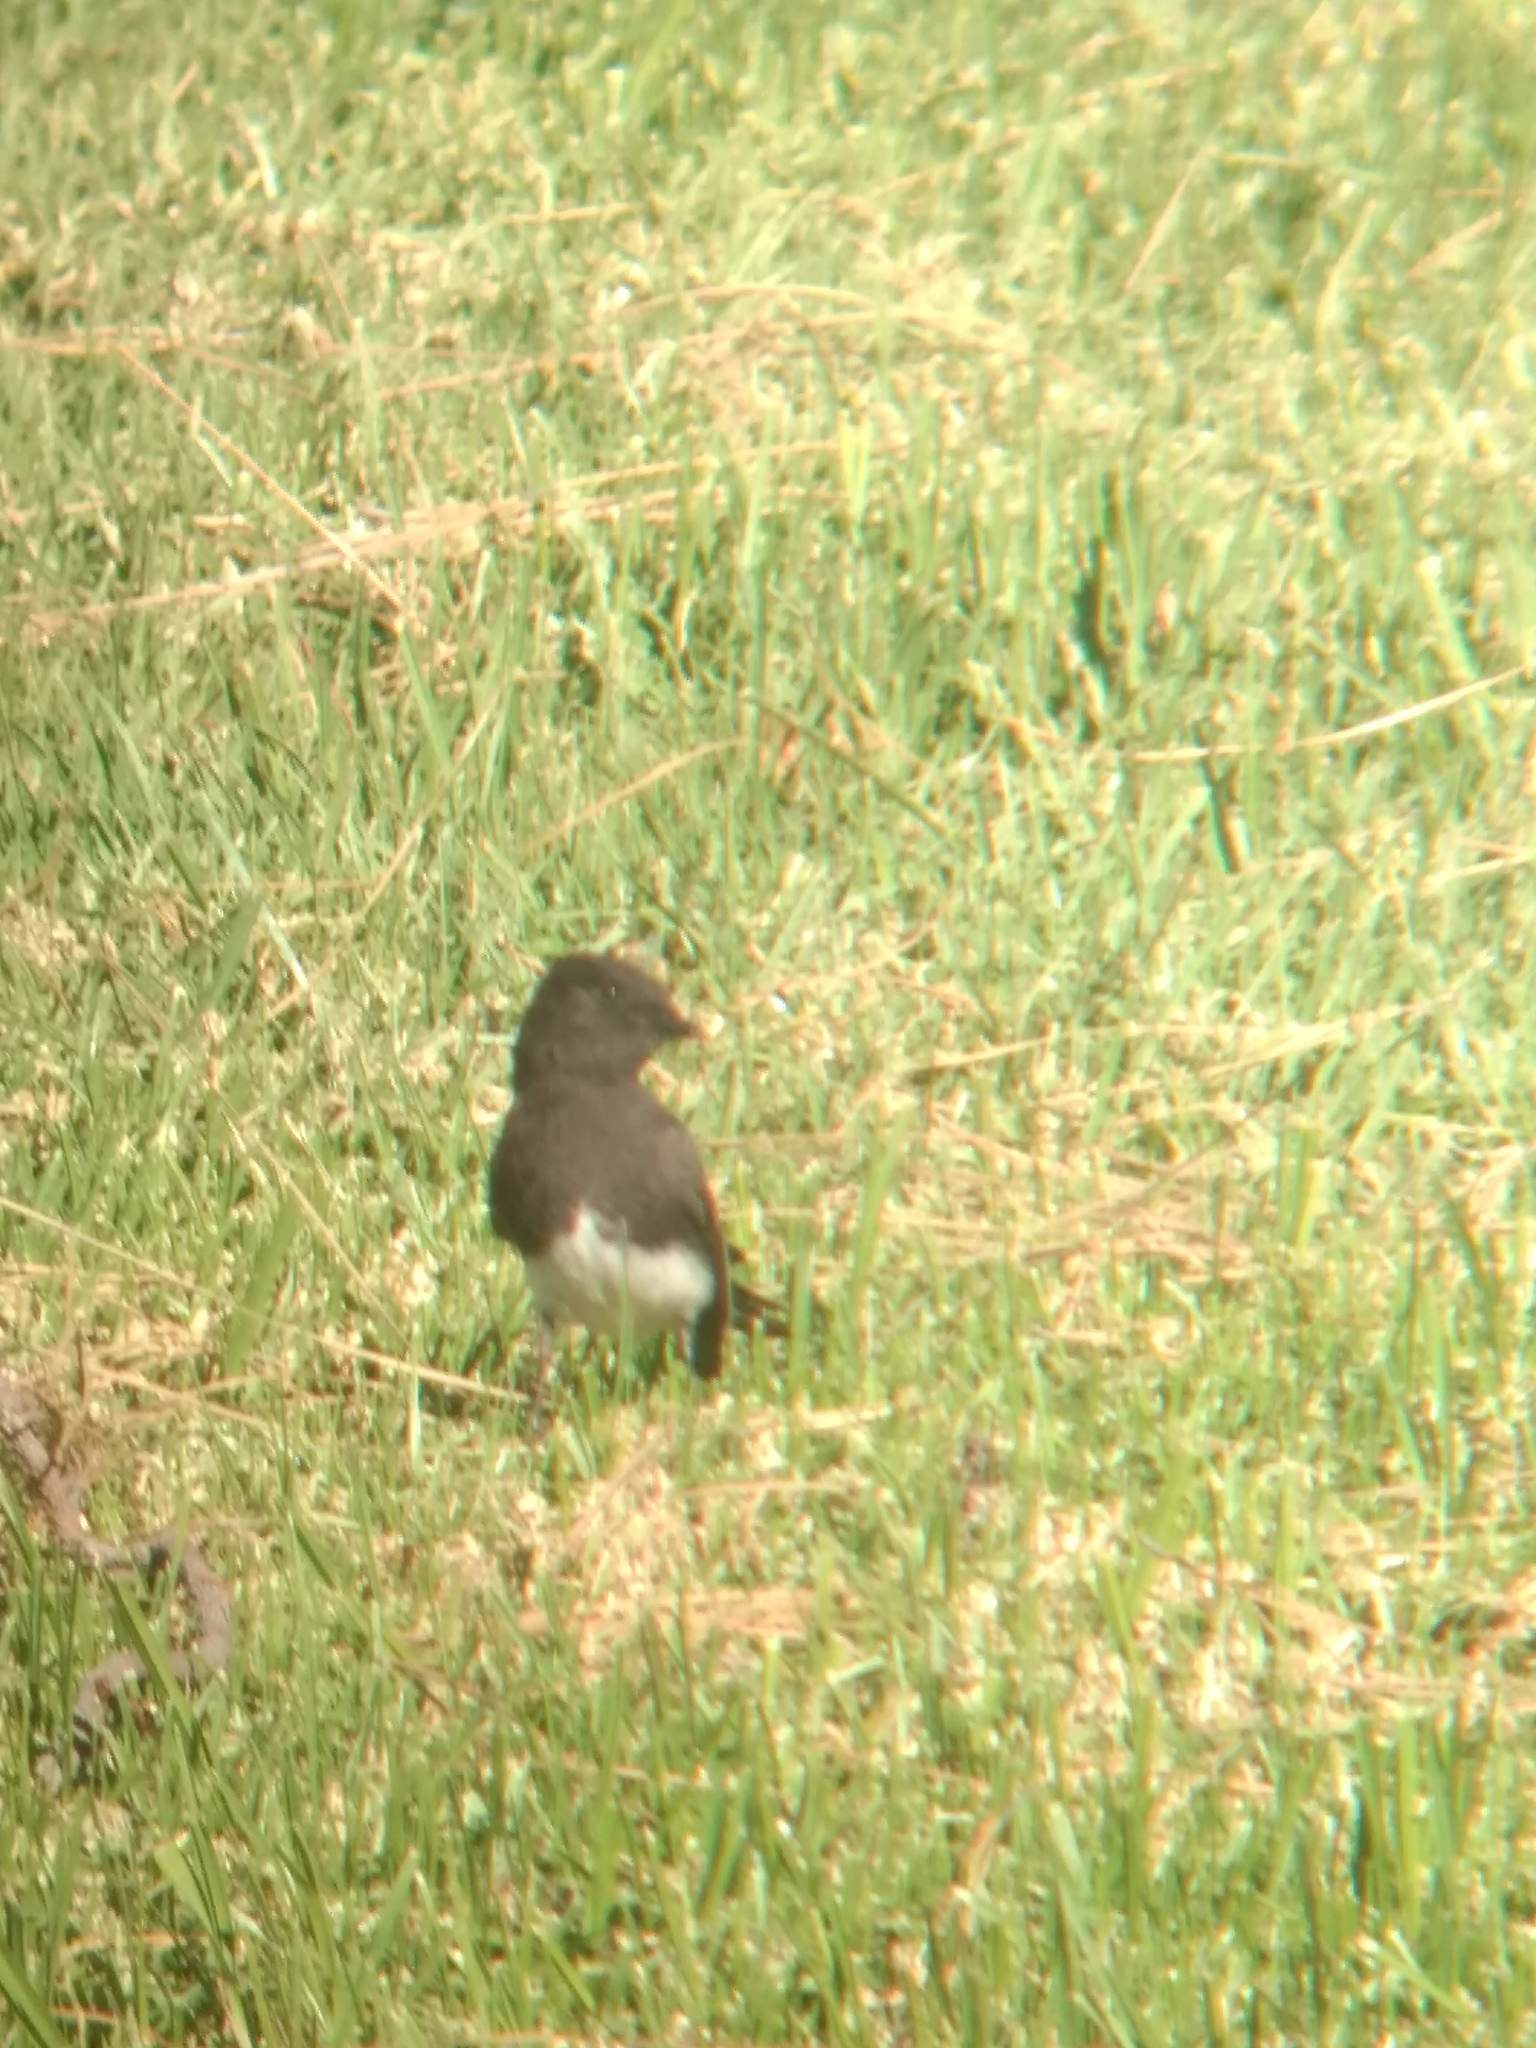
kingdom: Animalia
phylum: Chordata
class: Aves
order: Passeriformes
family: Tyrannidae
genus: Sayornis
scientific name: Sayornis nigricans
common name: Black phoebe
